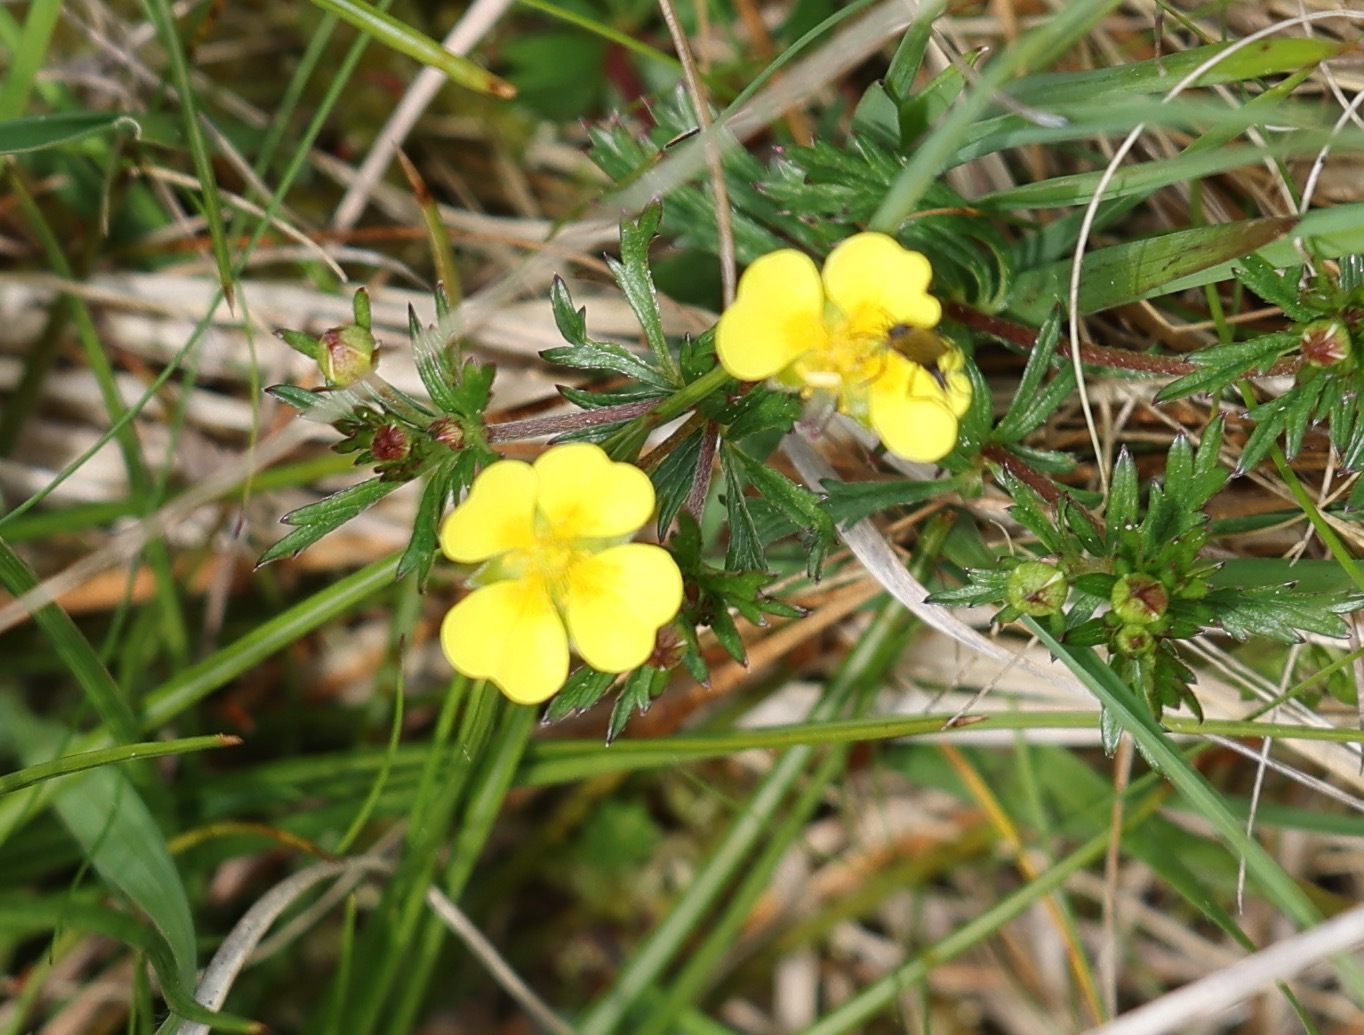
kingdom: Plantae
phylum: Tracheophyta
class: Magnoliopsida
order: Rosales
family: Rosaceae
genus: Potentilla
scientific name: Potentilla erecta
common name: Tormentil
